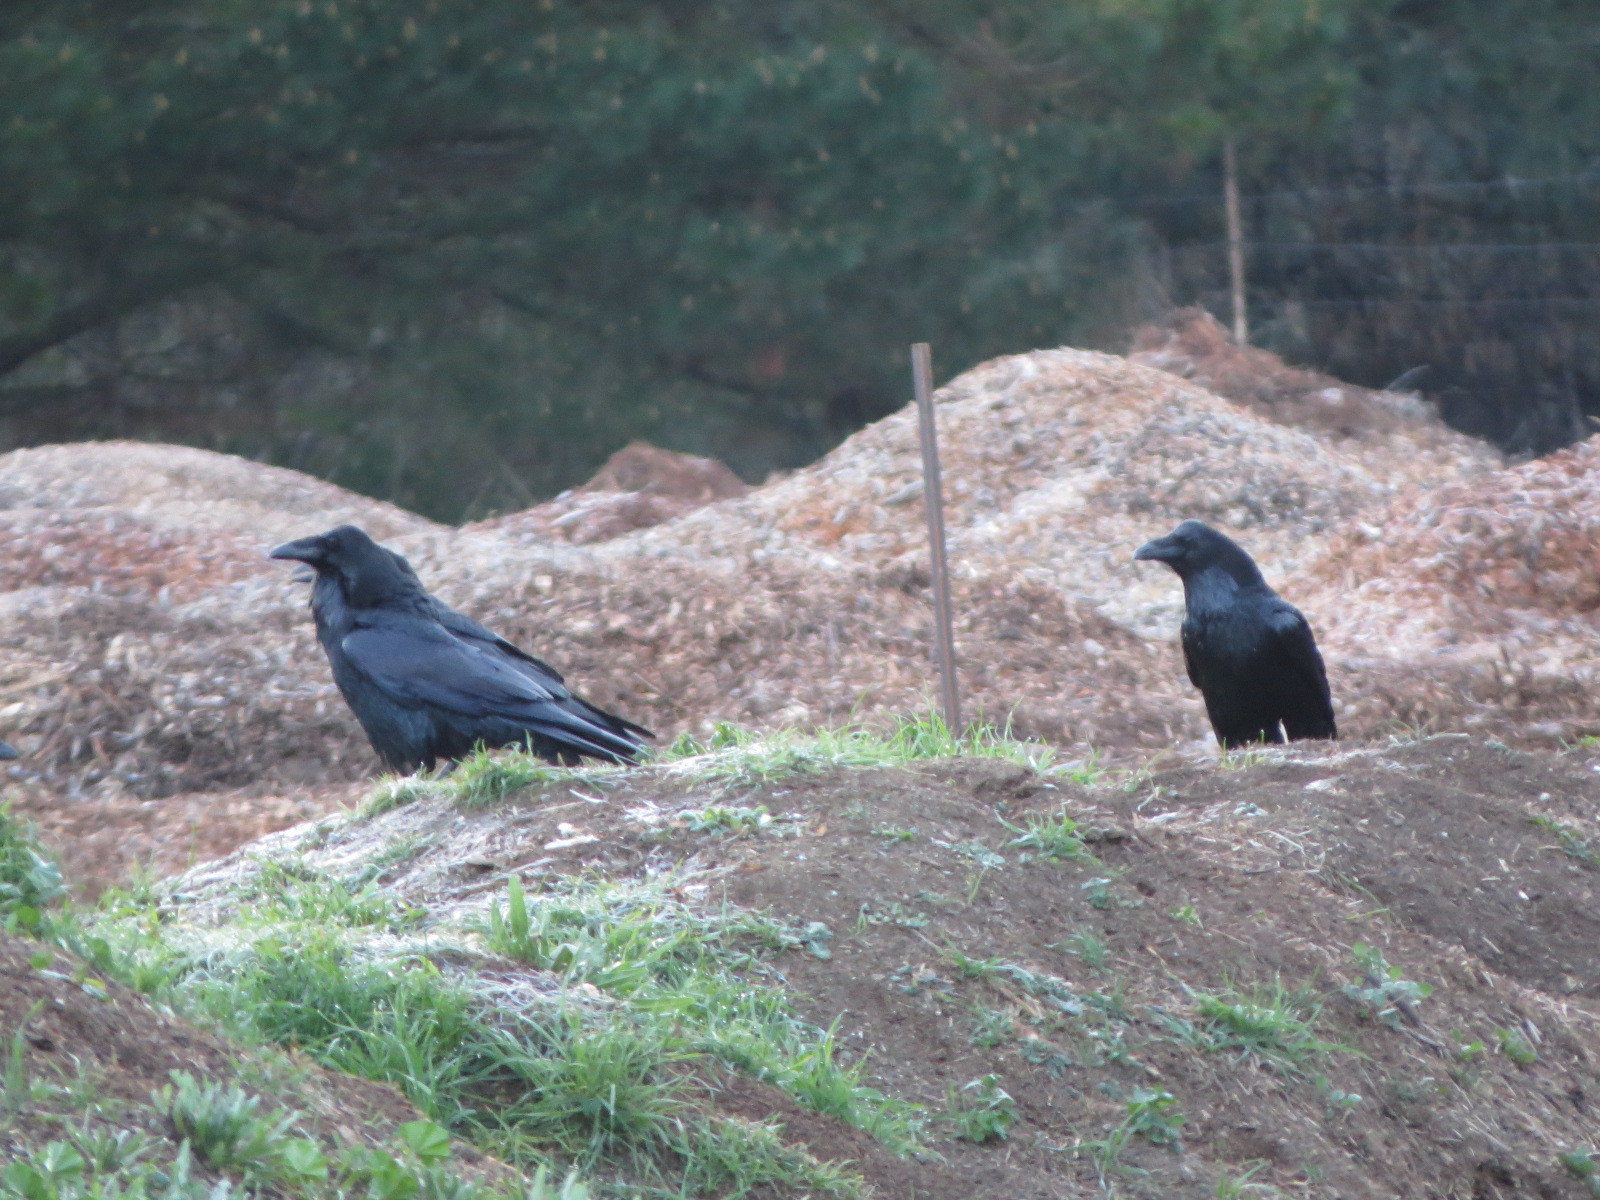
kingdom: Animalia
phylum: Chordata
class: Aves
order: Passeriformes
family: Corvidae
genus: Corvus
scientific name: Corvus corax
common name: Common raven
